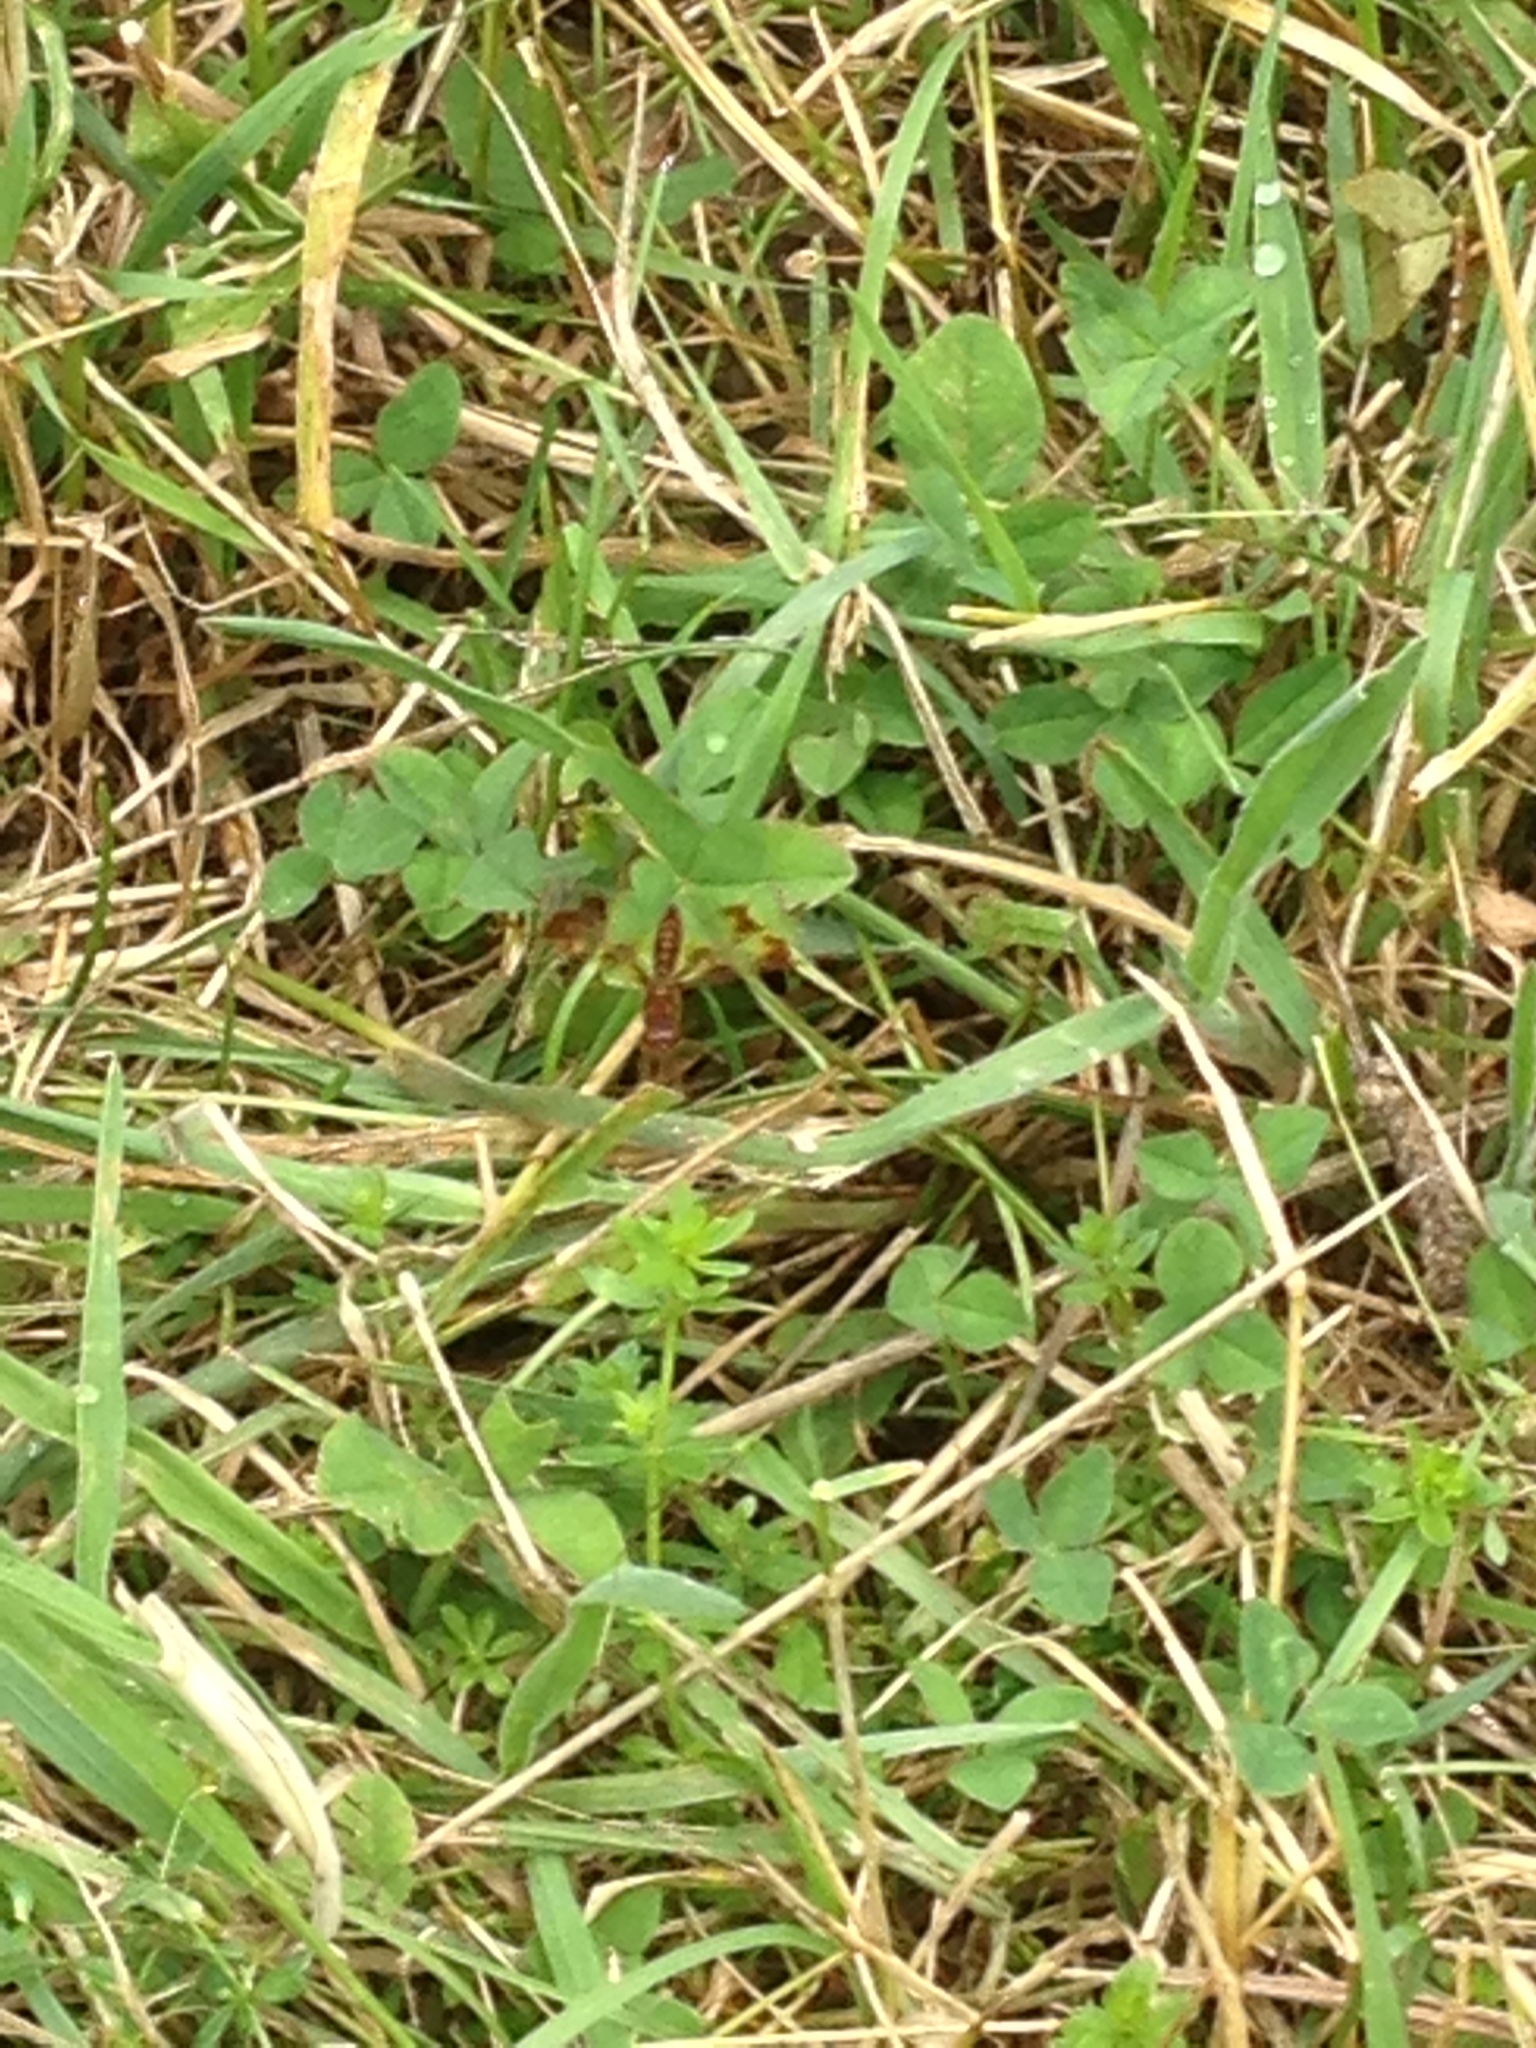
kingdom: Animalia
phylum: Arthropoda
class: Insecta
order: Odonata
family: Libellulidae
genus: Perithemis
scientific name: Perithemis tenera
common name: Eastern amberwing
